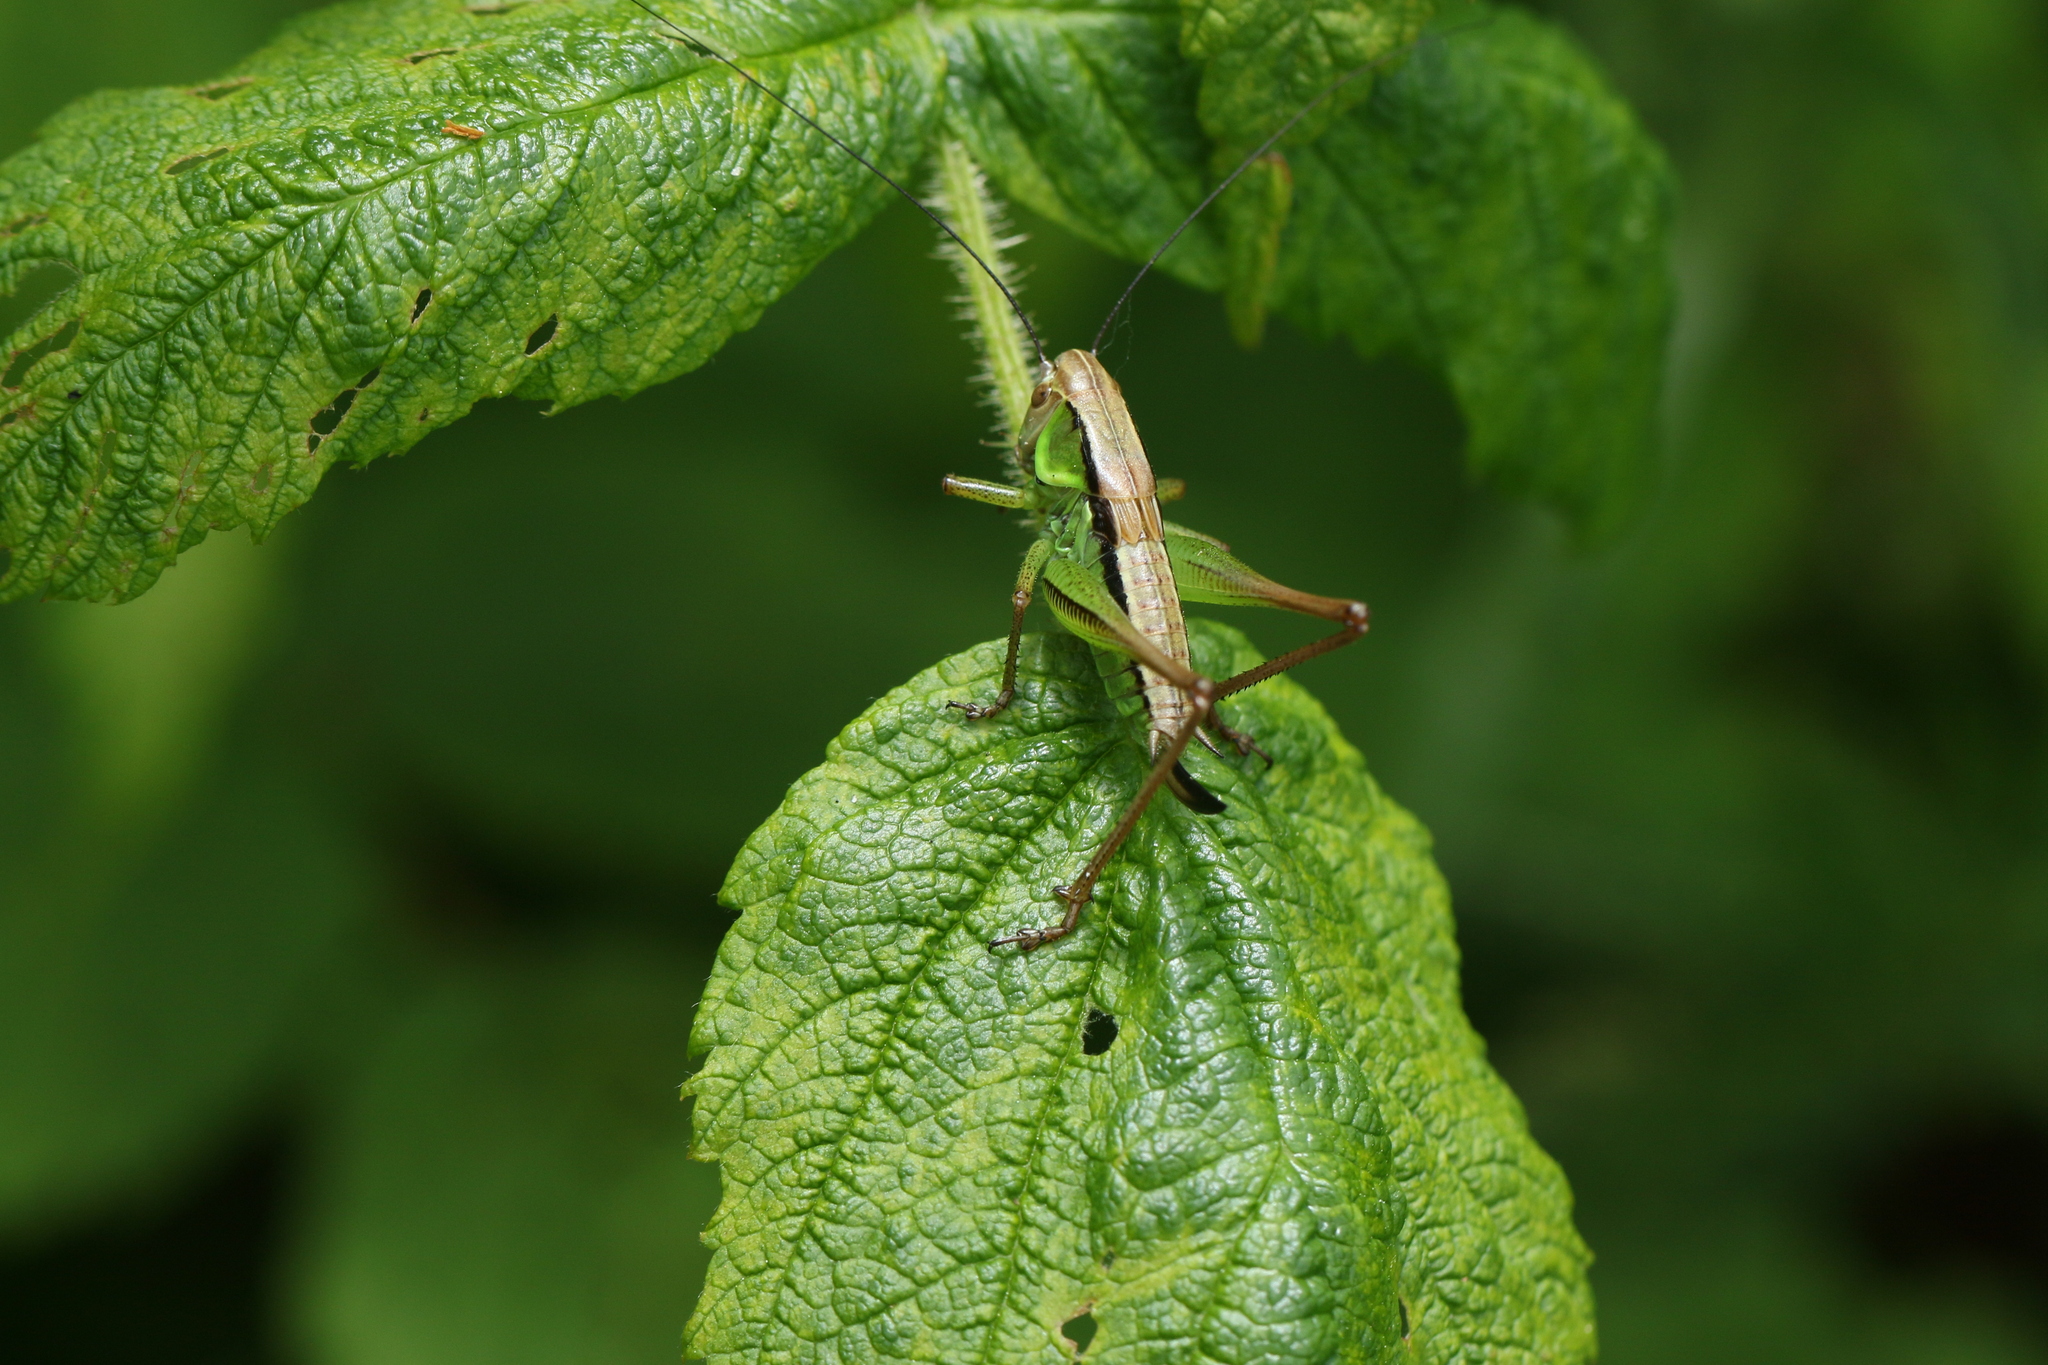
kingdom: Animalia
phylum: Arthropoda
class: Insecta
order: Orthoptera
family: Tettigoniidae
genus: Roeseliana
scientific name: Roeseliana roeselii
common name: Roesel's bush cricket
